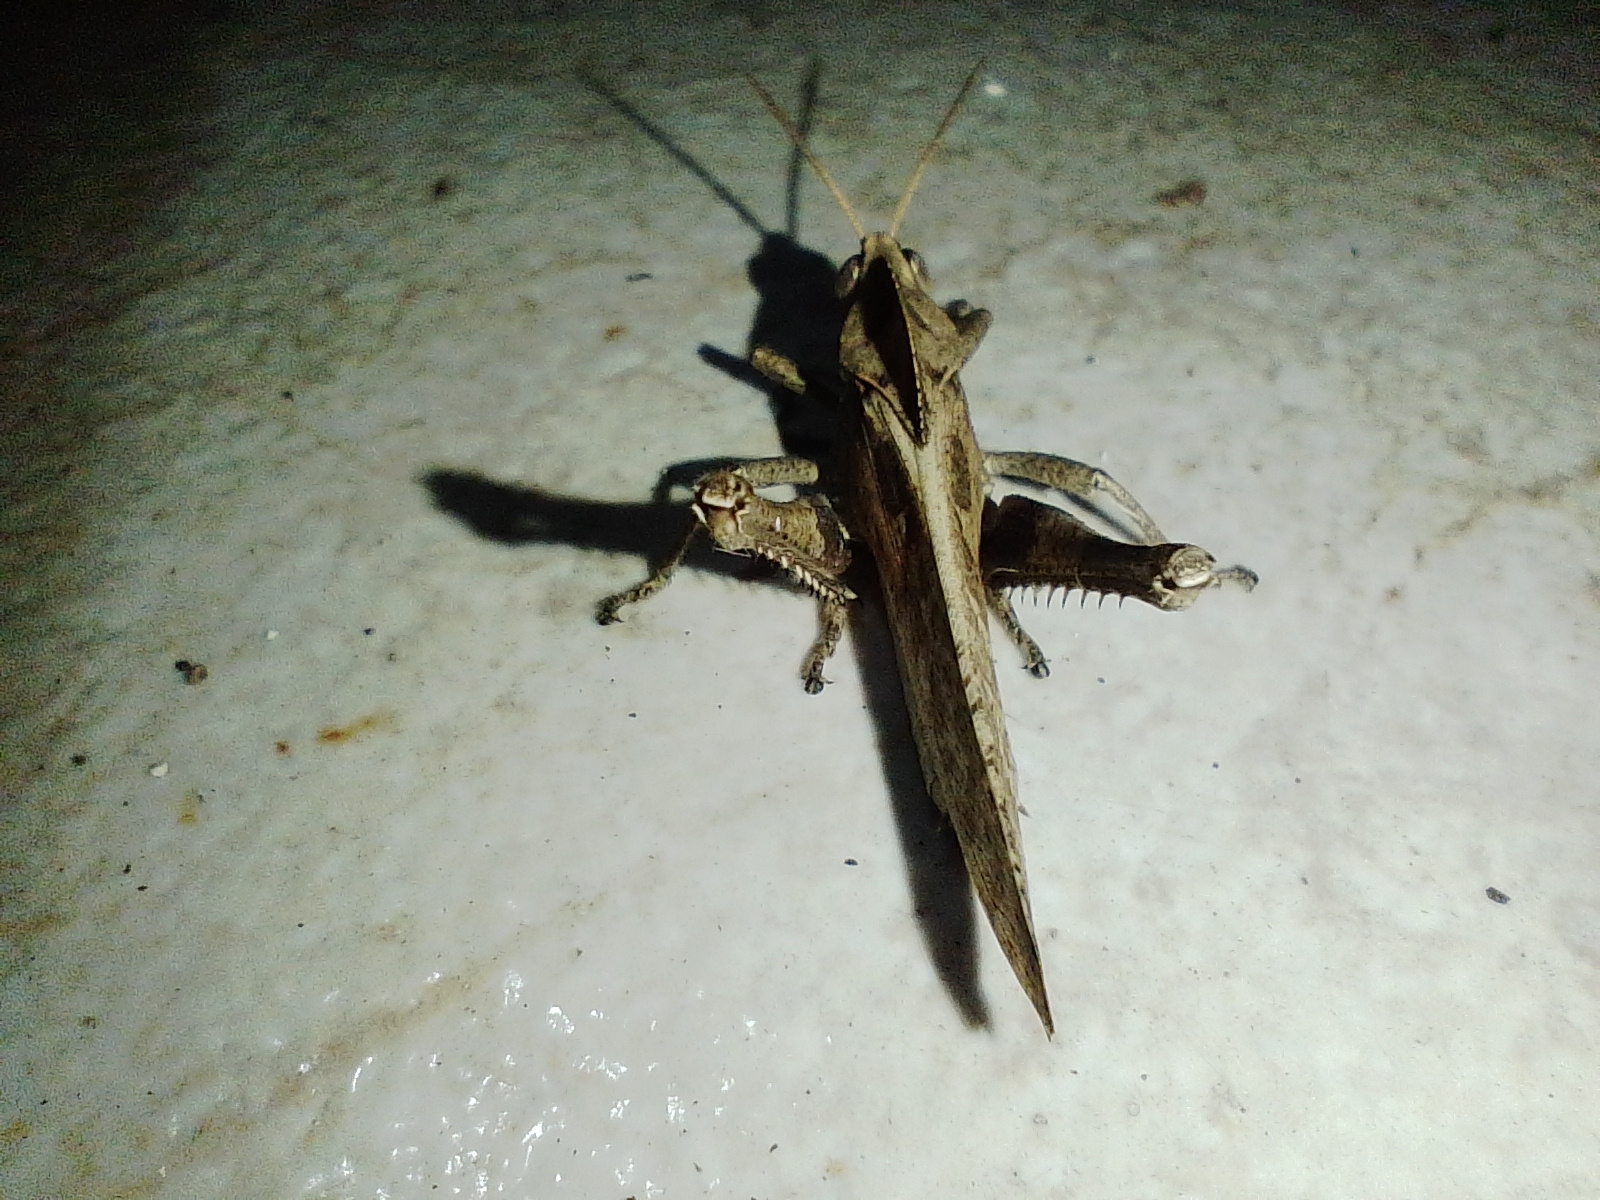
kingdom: Animalia
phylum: Arthropoda
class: Insecta
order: Orthoptera
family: Romaleidae
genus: Xyleus
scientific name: Xyleus discoideus
